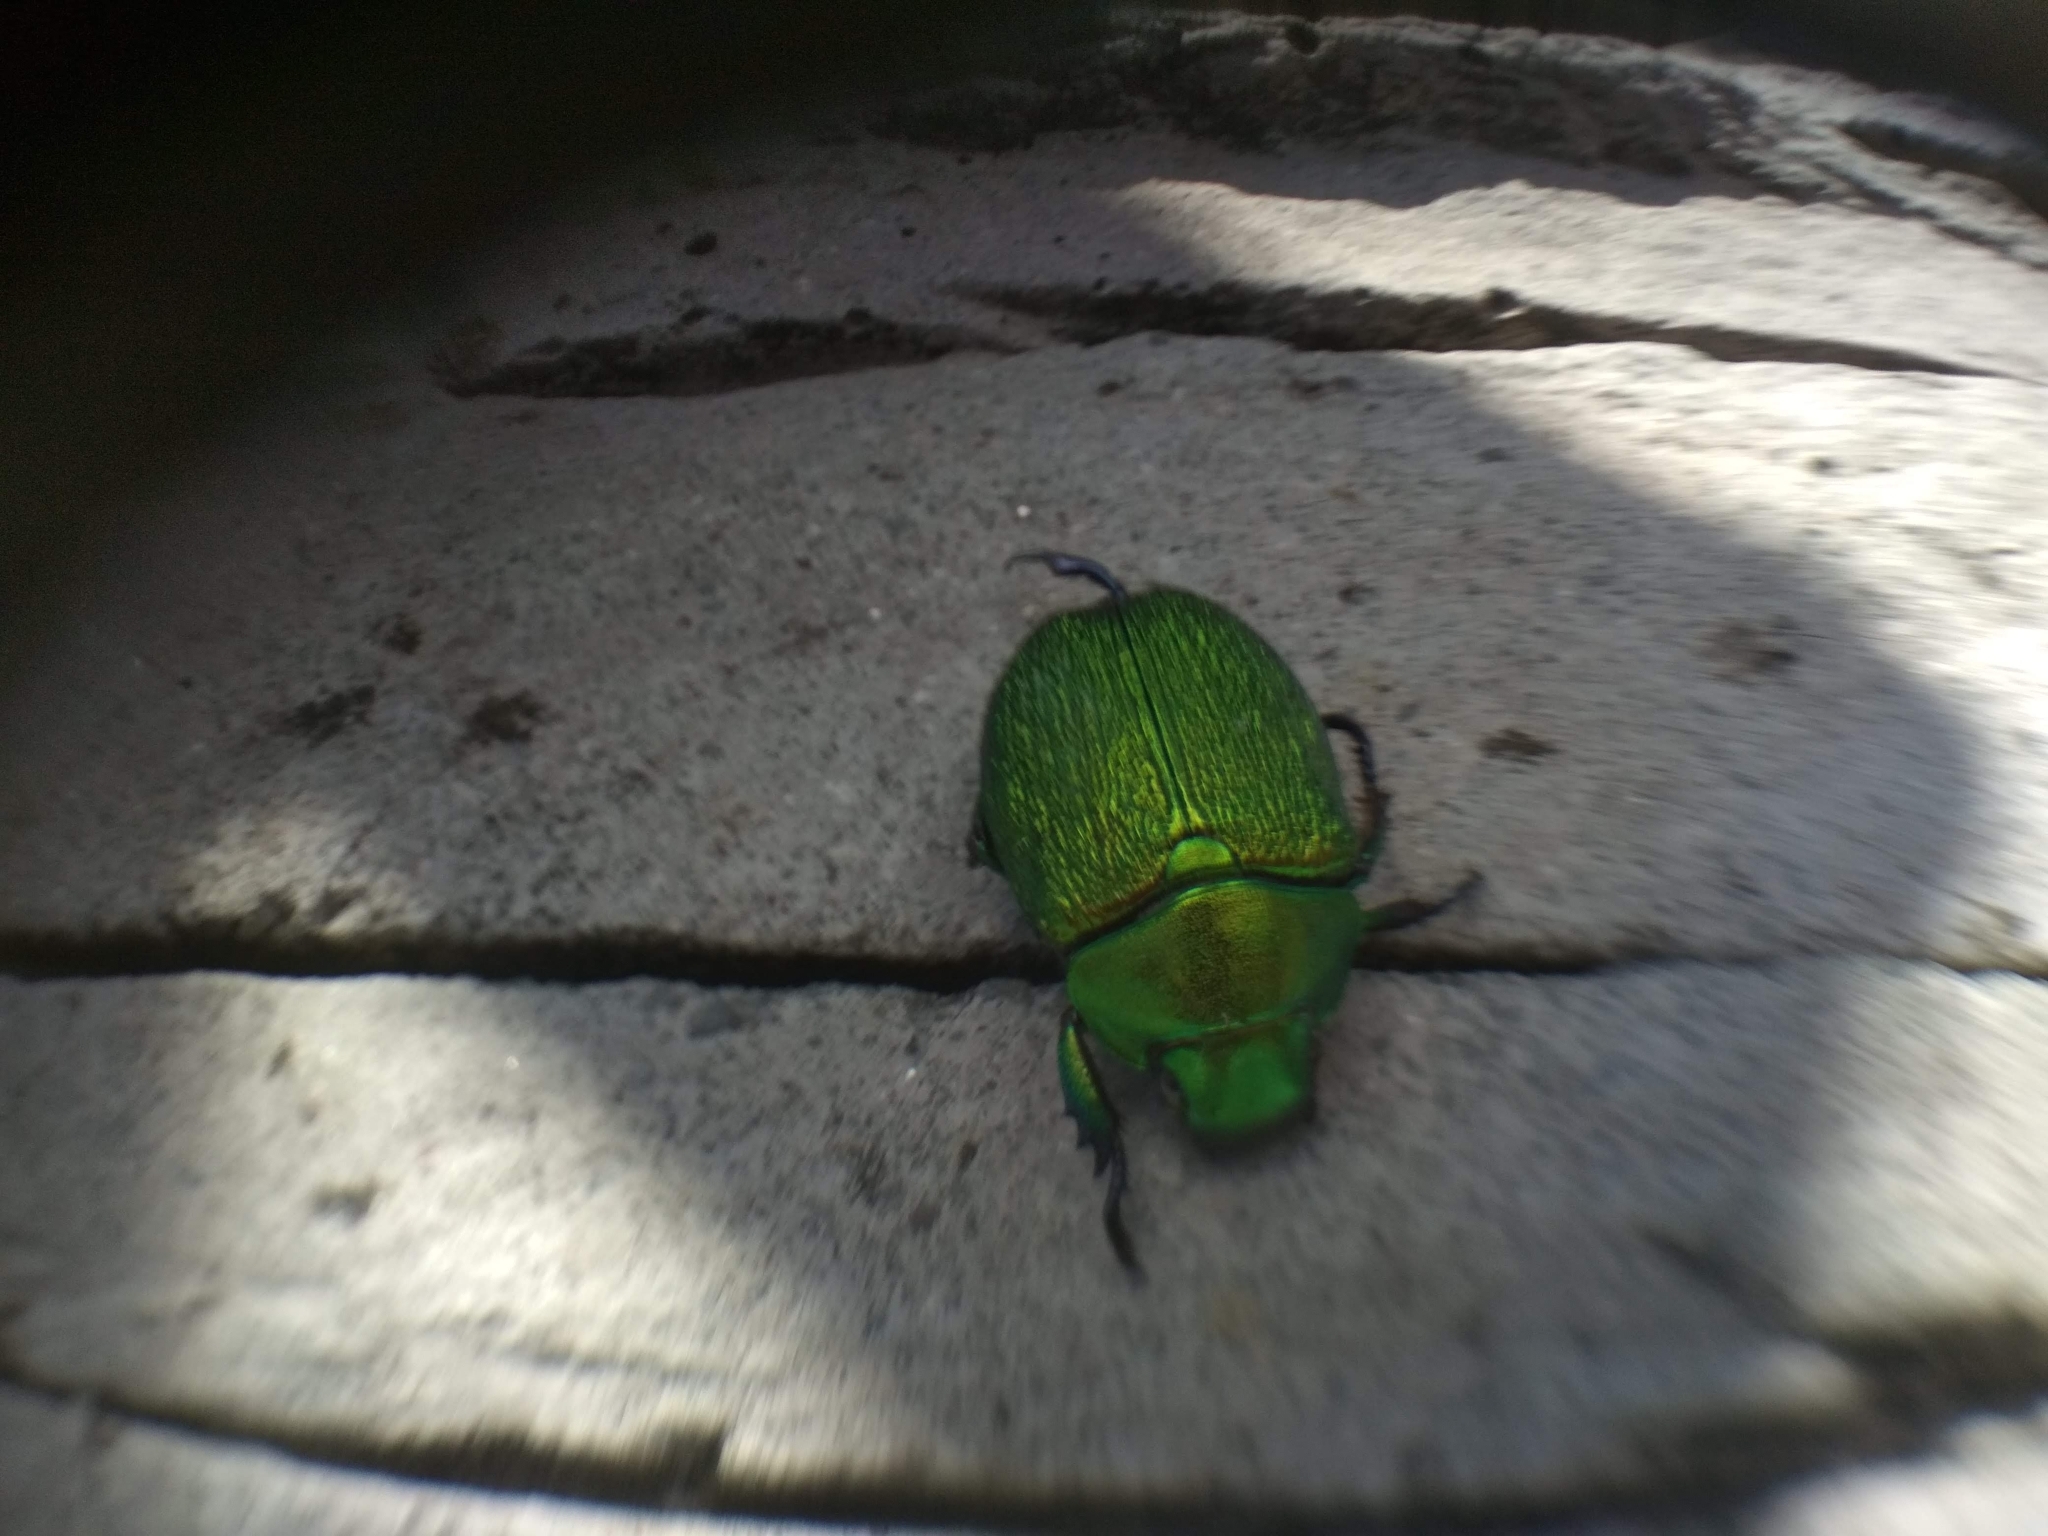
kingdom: Animalia
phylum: Arthropoda
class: Insecta
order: Coleoptera
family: Scarabaeidae
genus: Chrysophora
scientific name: Chrysophora chrysochlora
